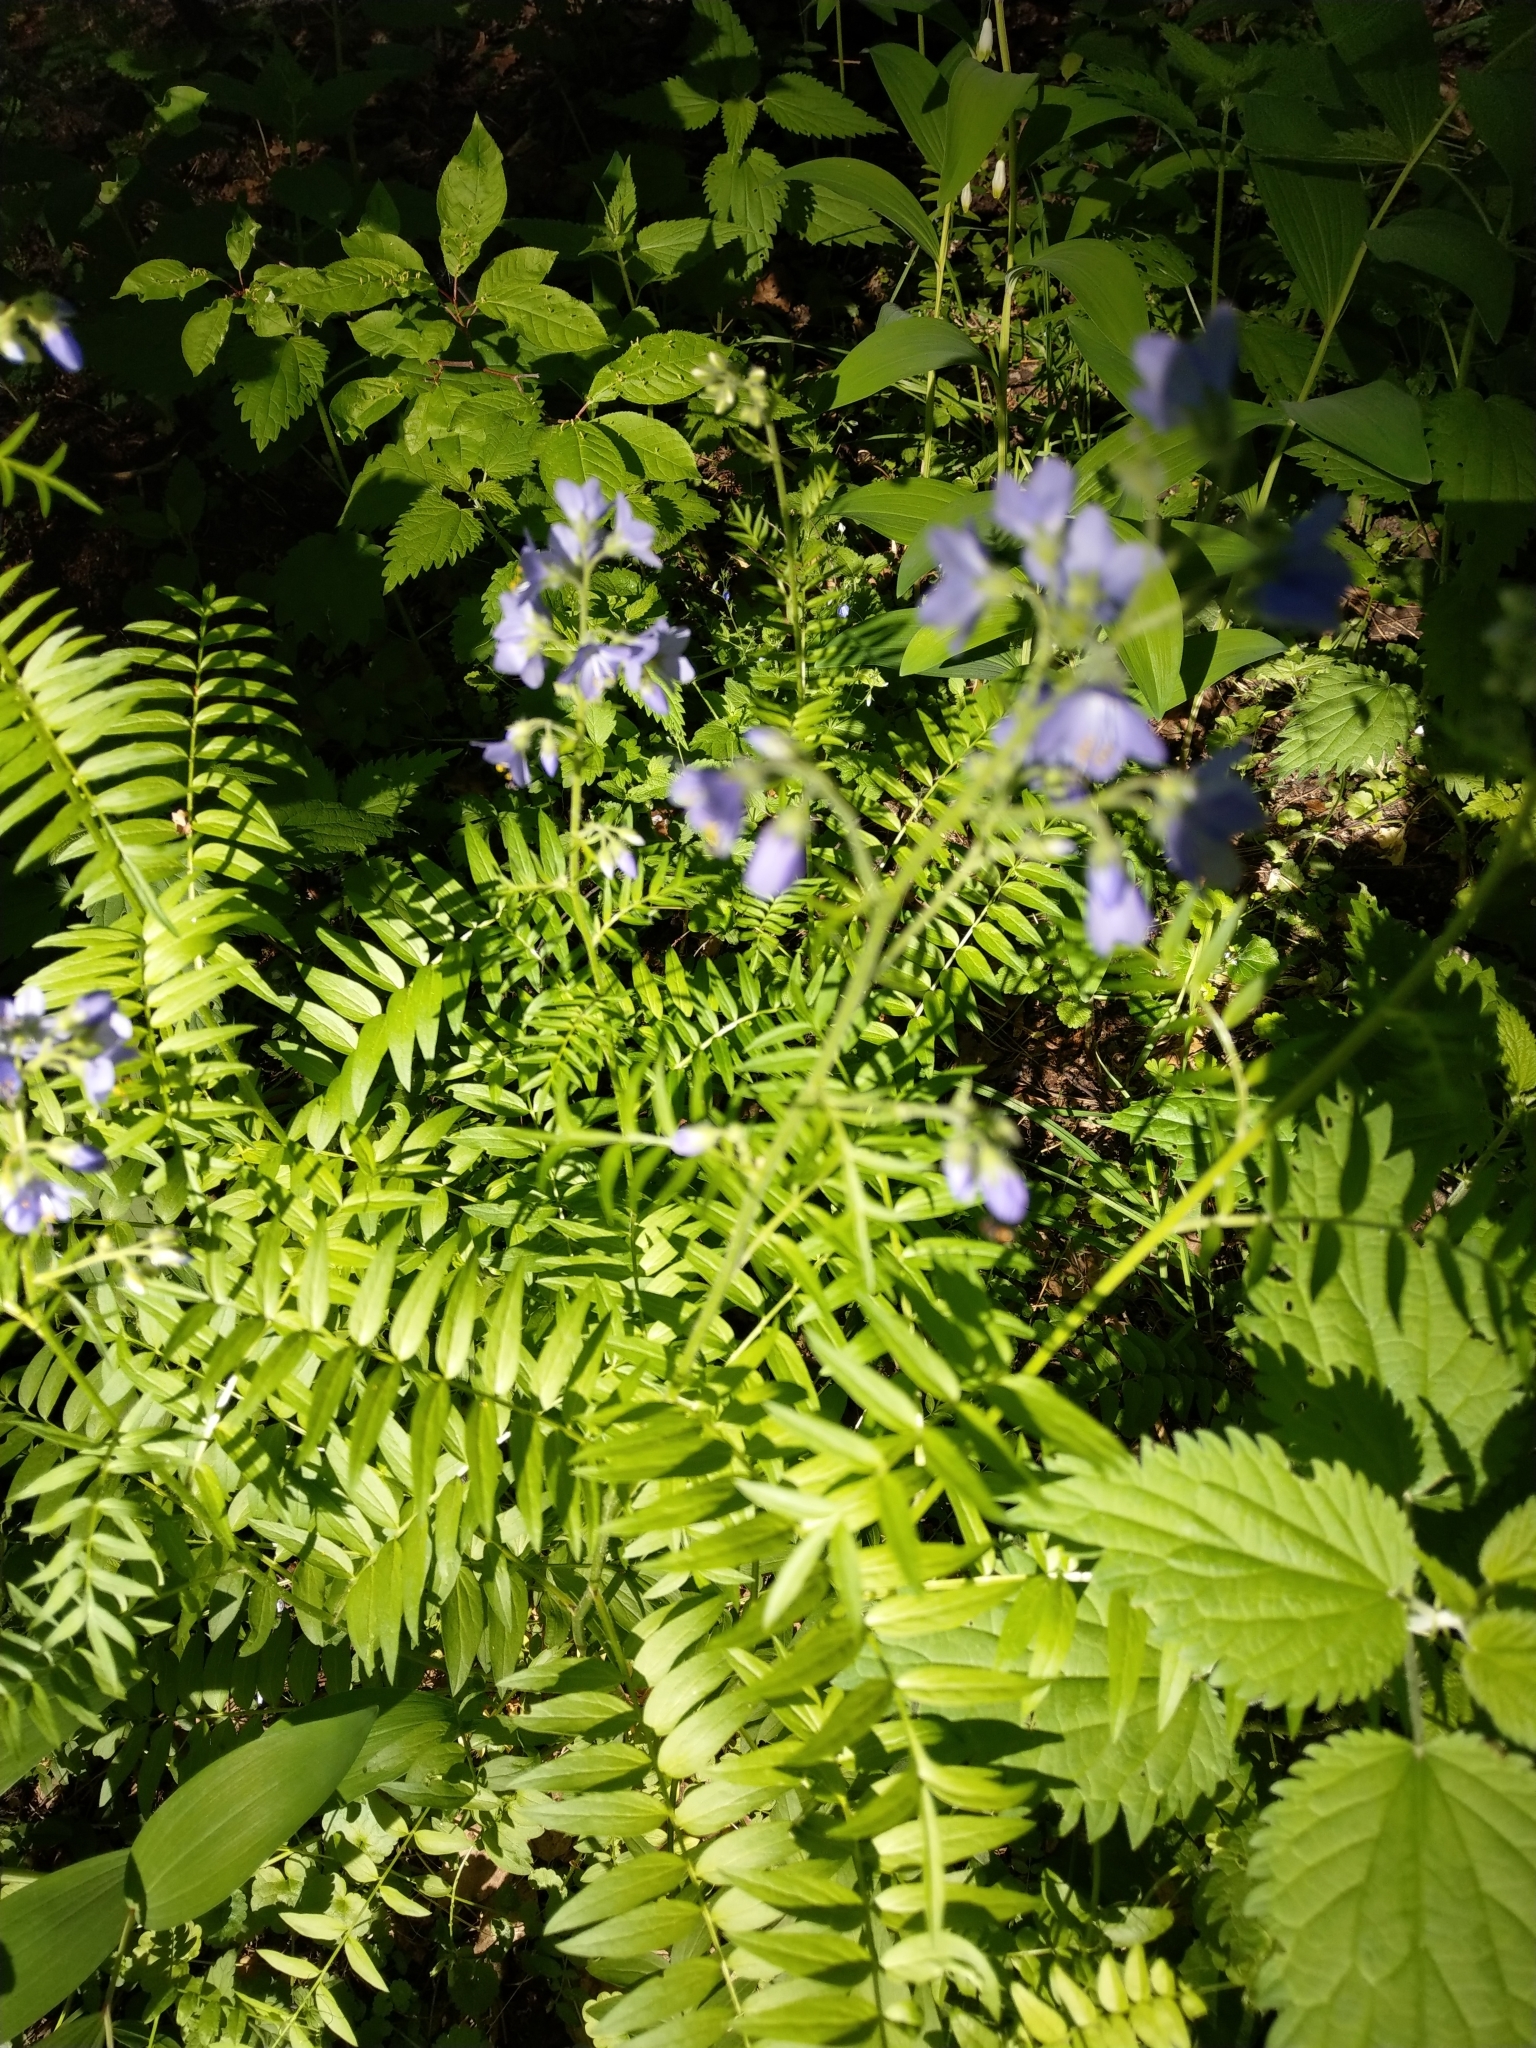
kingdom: Plantae
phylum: Tracheophyta
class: Magnoliopsida
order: Ericales
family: Polemoniaceae
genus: Polemonium
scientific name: Polemonium caeruleum
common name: Jacob's-ladder
